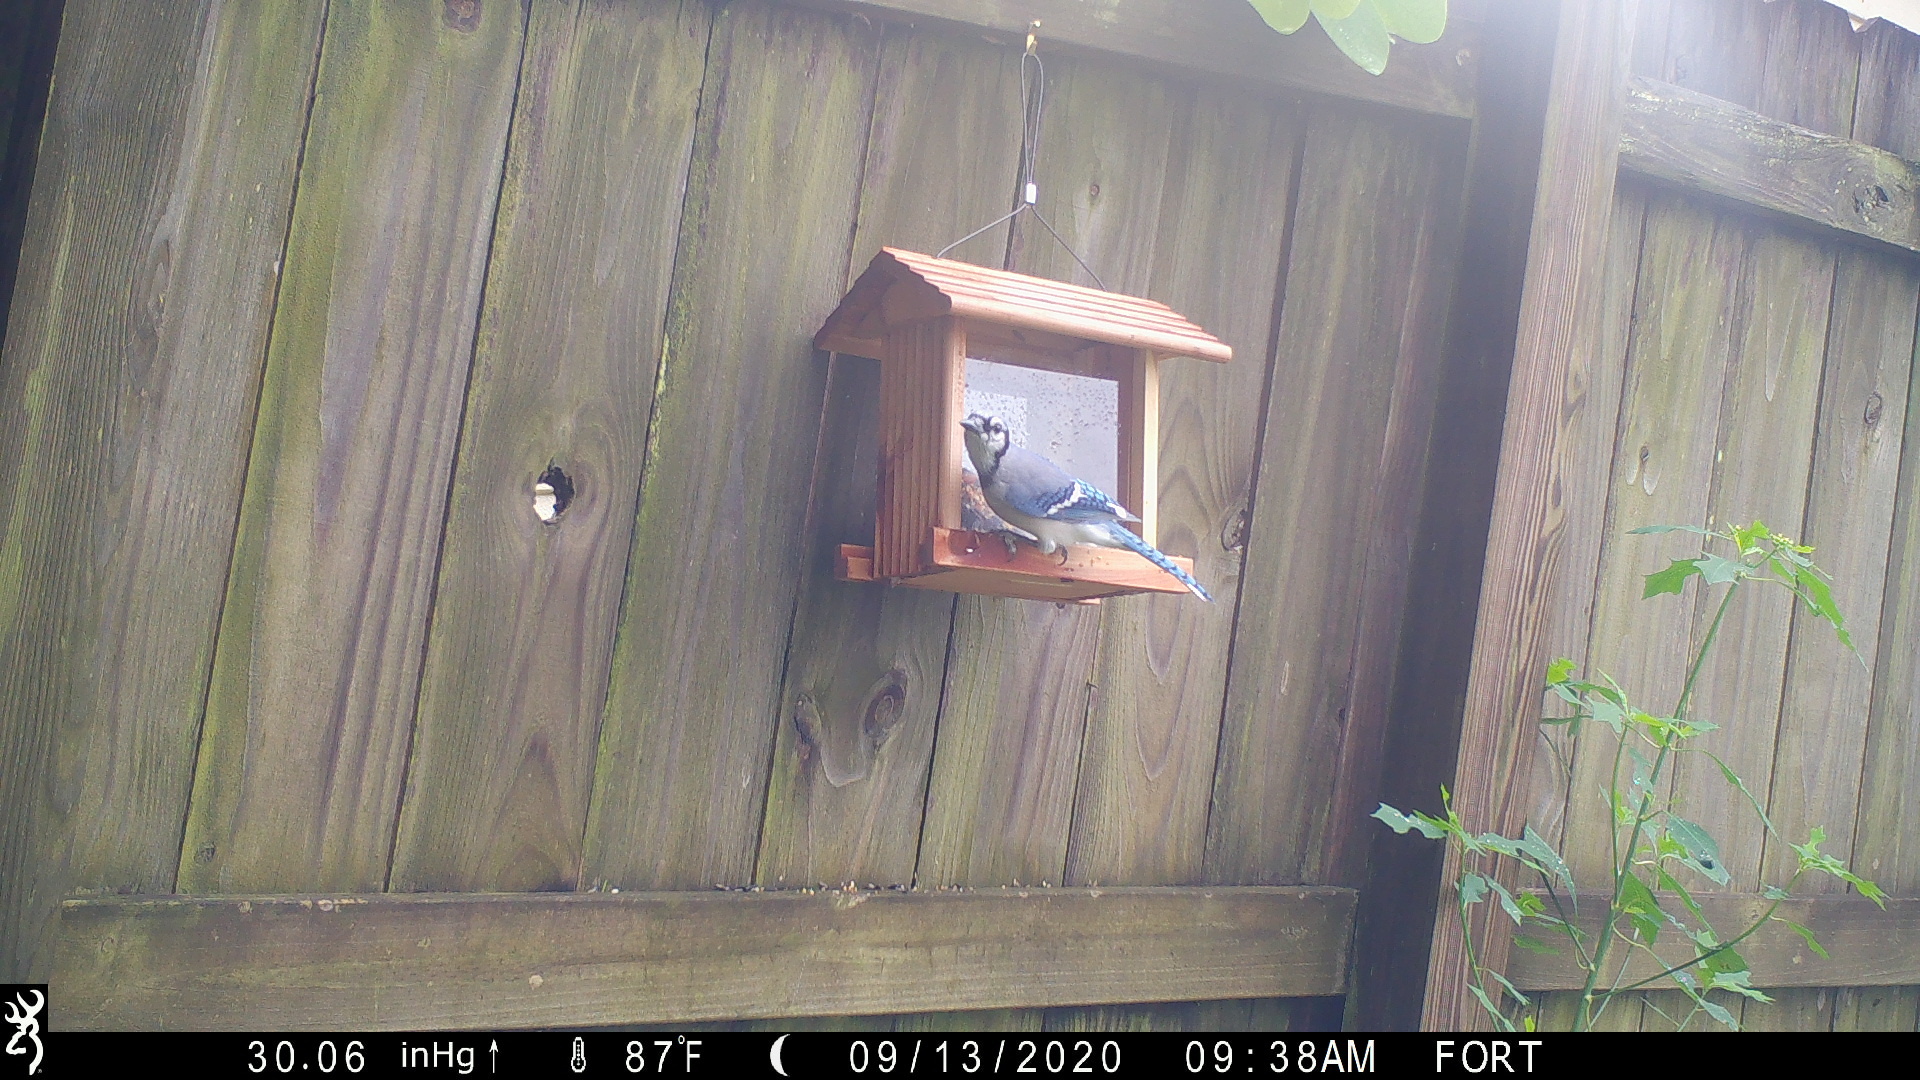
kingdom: Animalia
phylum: Chordata
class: Aves
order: Passeriformes
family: Corvidae
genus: Cyanocitta
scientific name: Cyanocitta cristata
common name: Blue jay
